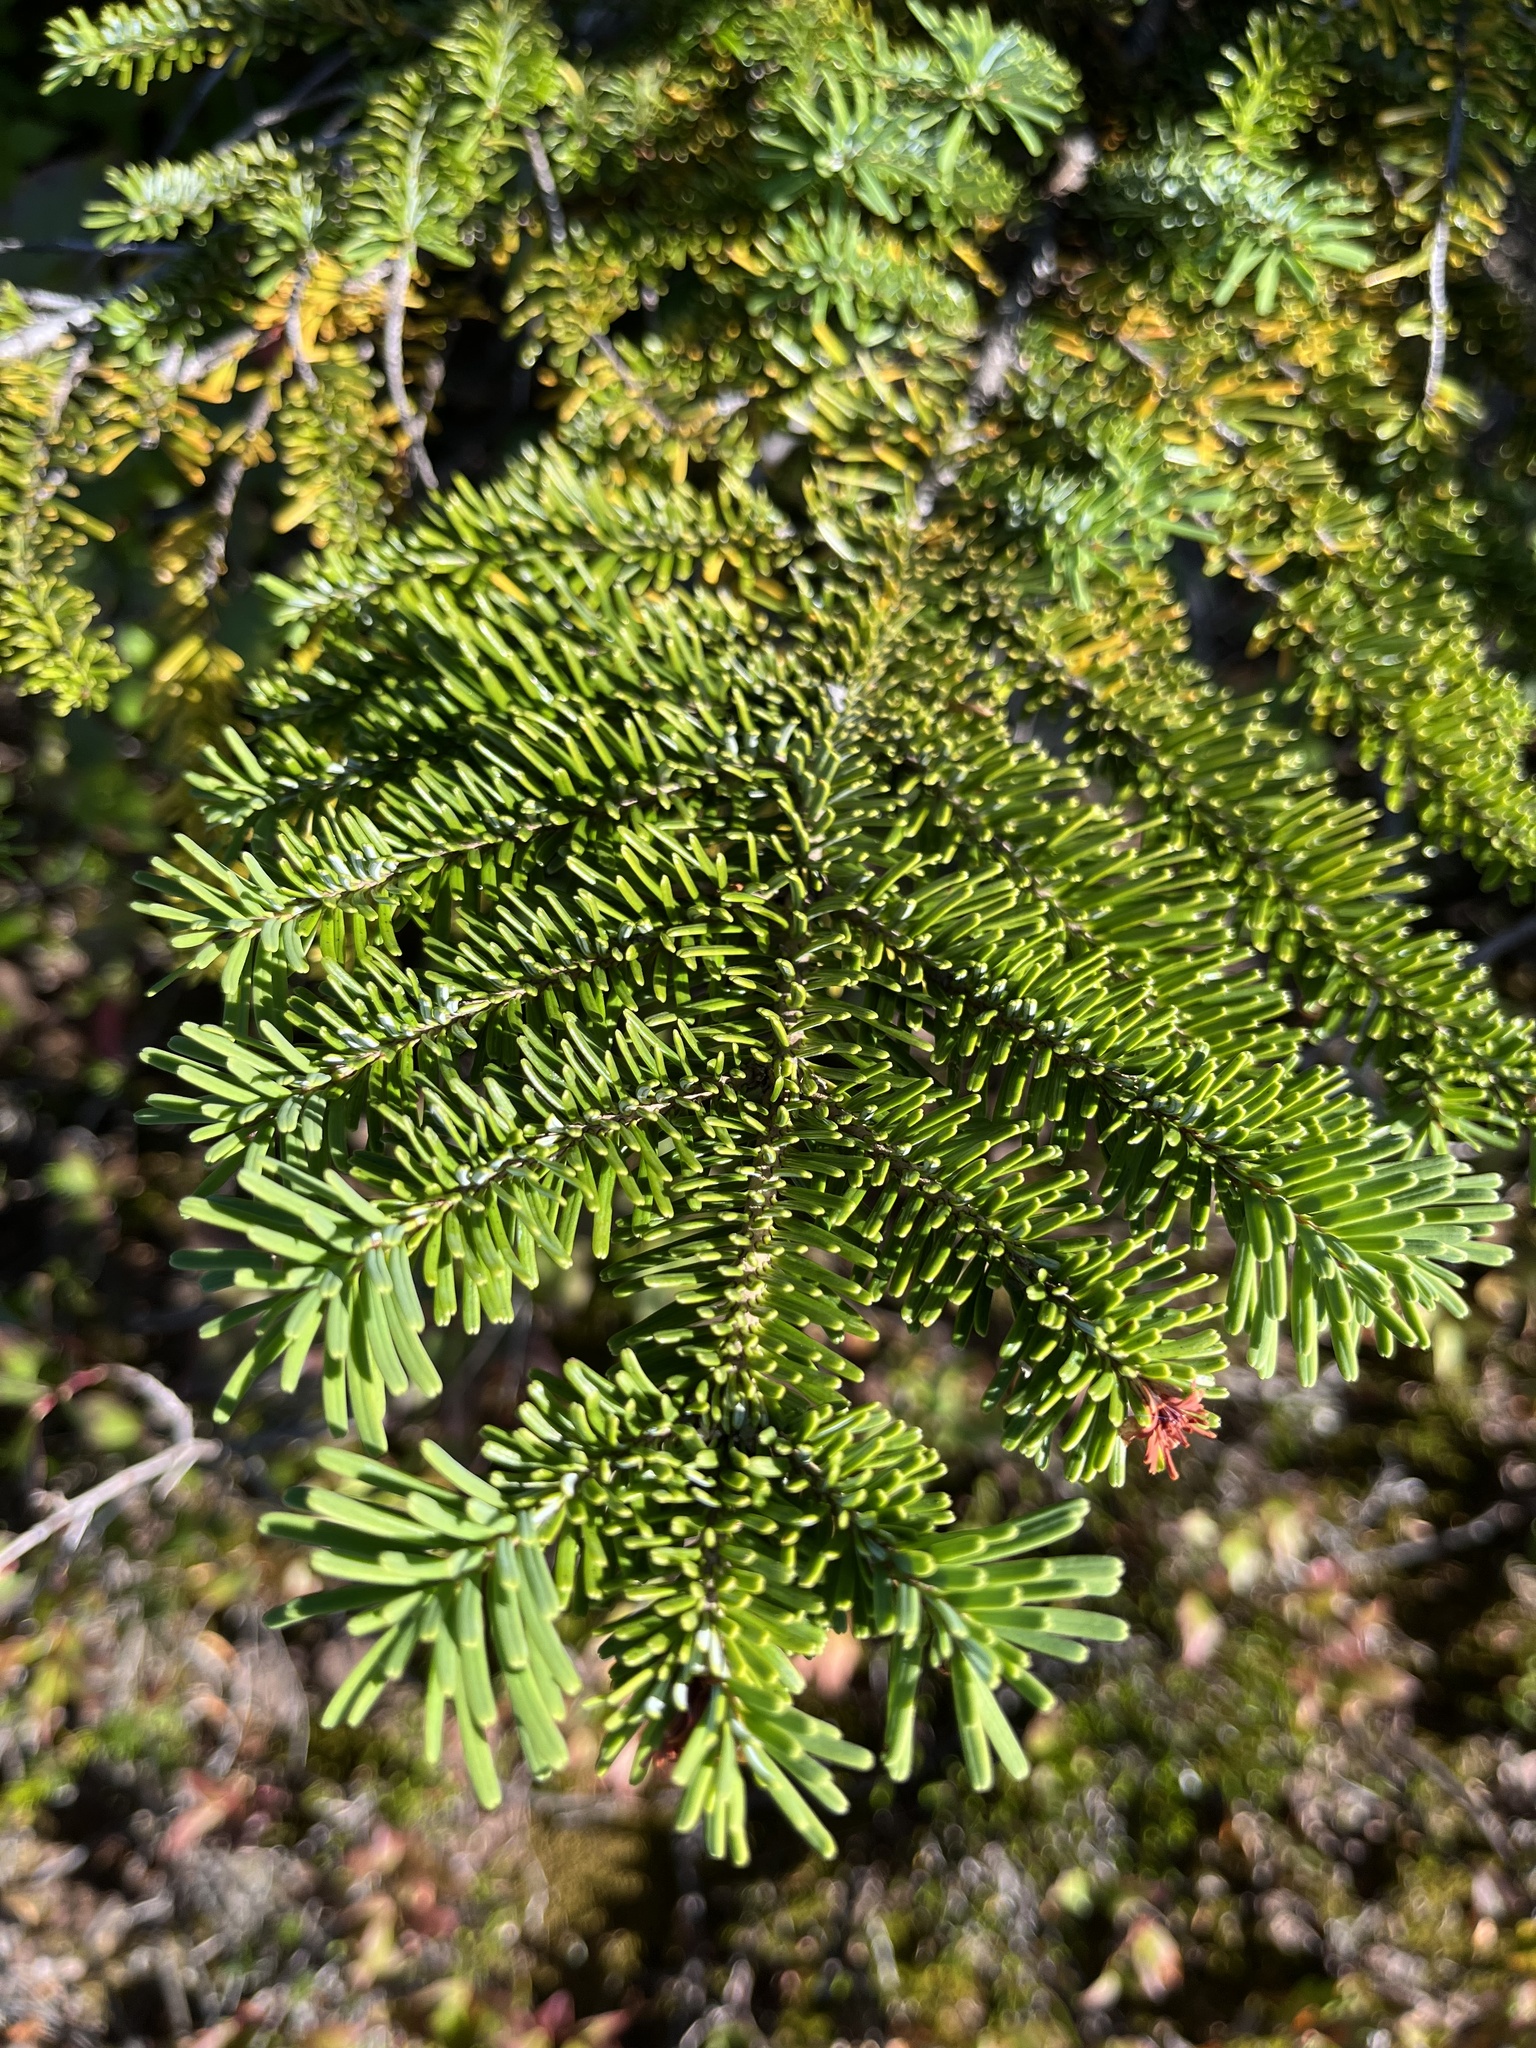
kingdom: Plantae
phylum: Tracheophyta
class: Pinopsida
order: Pinales
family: Pinaceae
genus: Abies
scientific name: Abies amabilis
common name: Pacific silver fir
